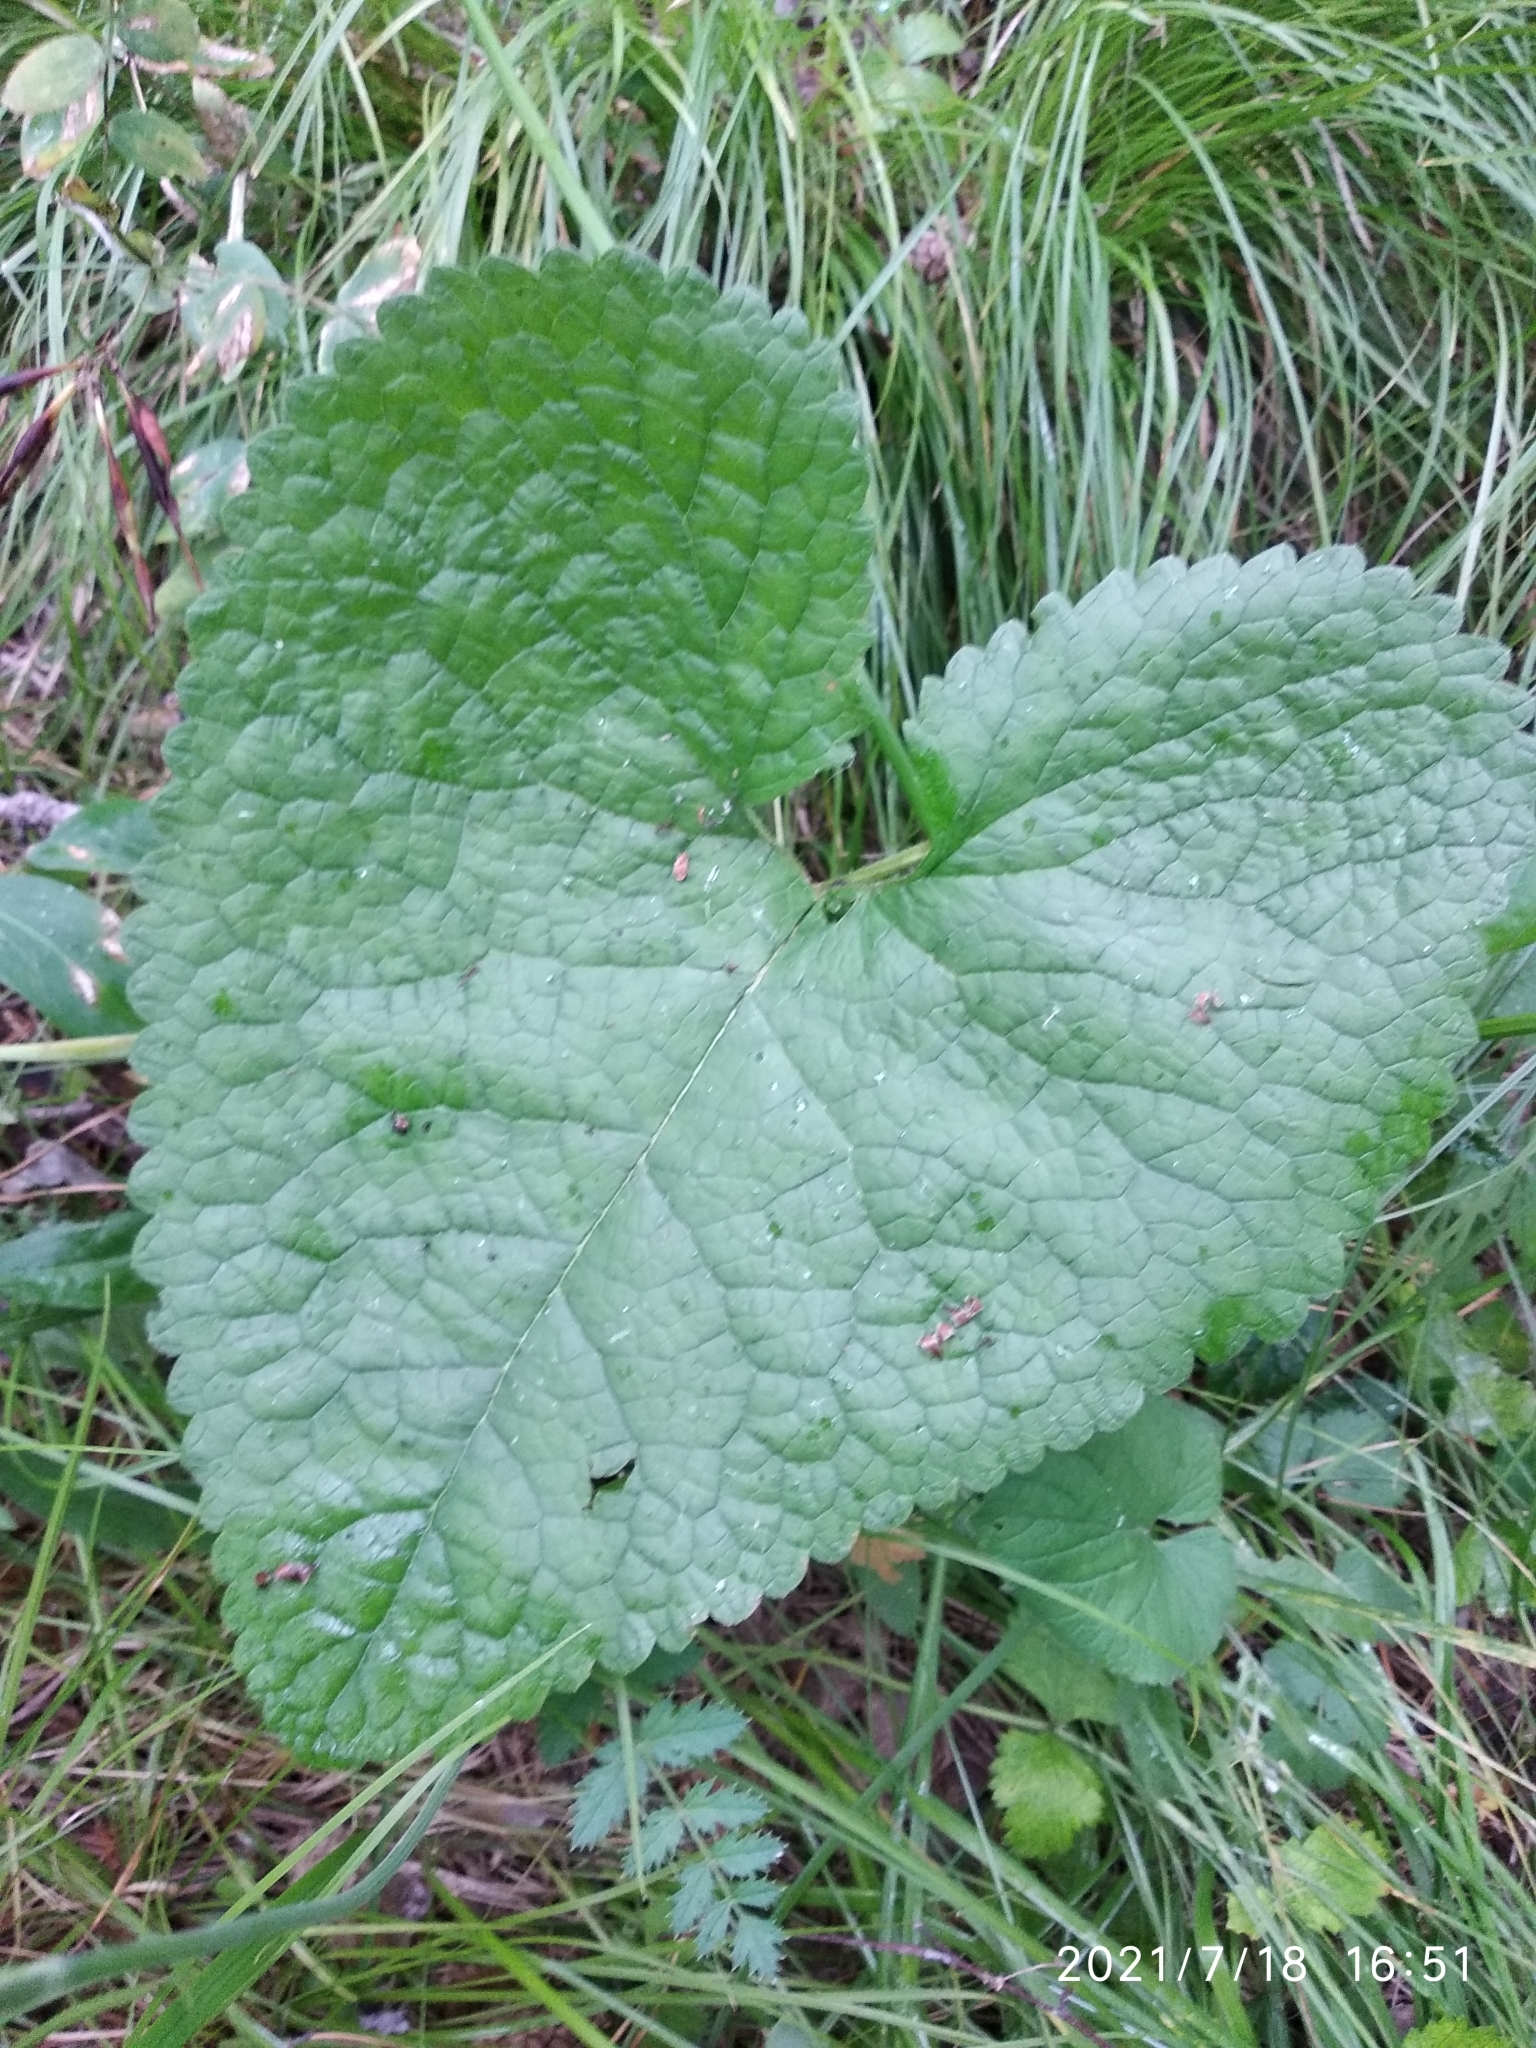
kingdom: Plantae
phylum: Tracheophyta
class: Magnoliopsida
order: Lamiales
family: Lamiaceae
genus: Phlomoides
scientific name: Phlomoides tuberosa
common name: Tuberous jerusalem sage
